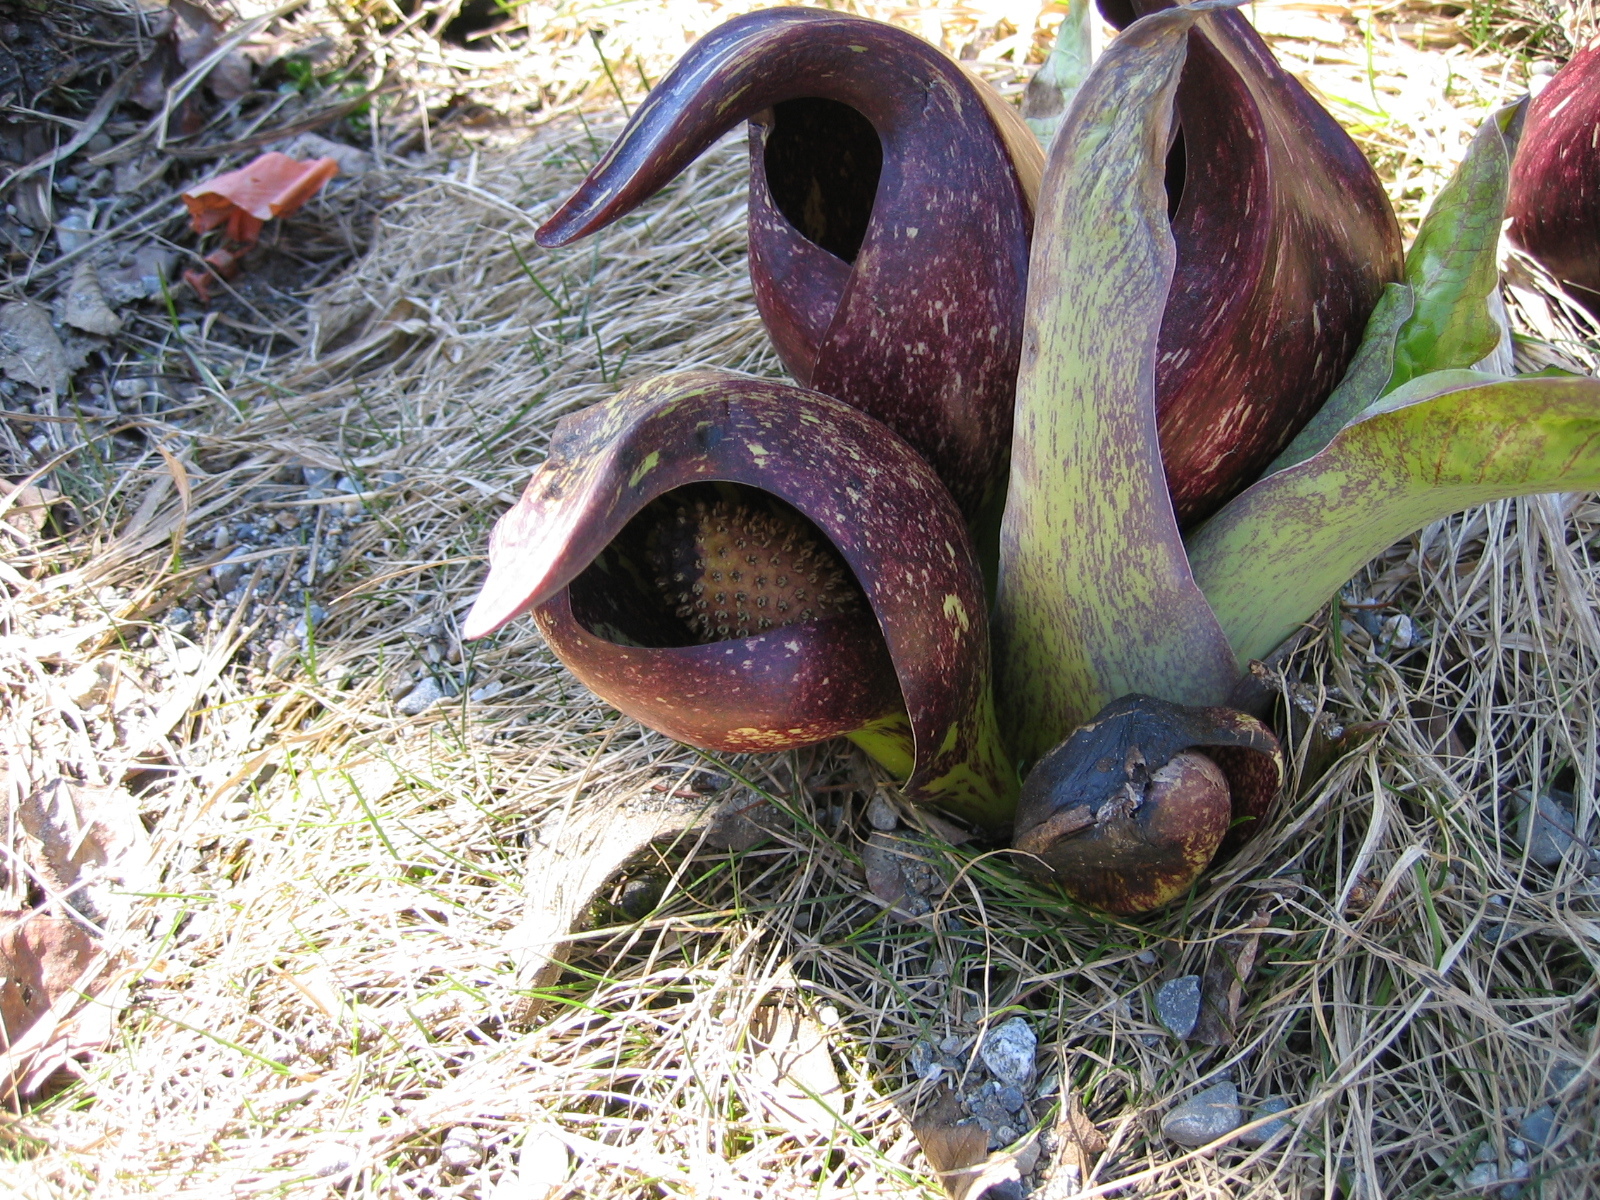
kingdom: Plantae
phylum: Tracheophyta
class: Liliopsida
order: Alismatales
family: Araceae
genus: Symplocarpus
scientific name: Symplocarpus foetidus
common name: Eastern skunk cabbage
